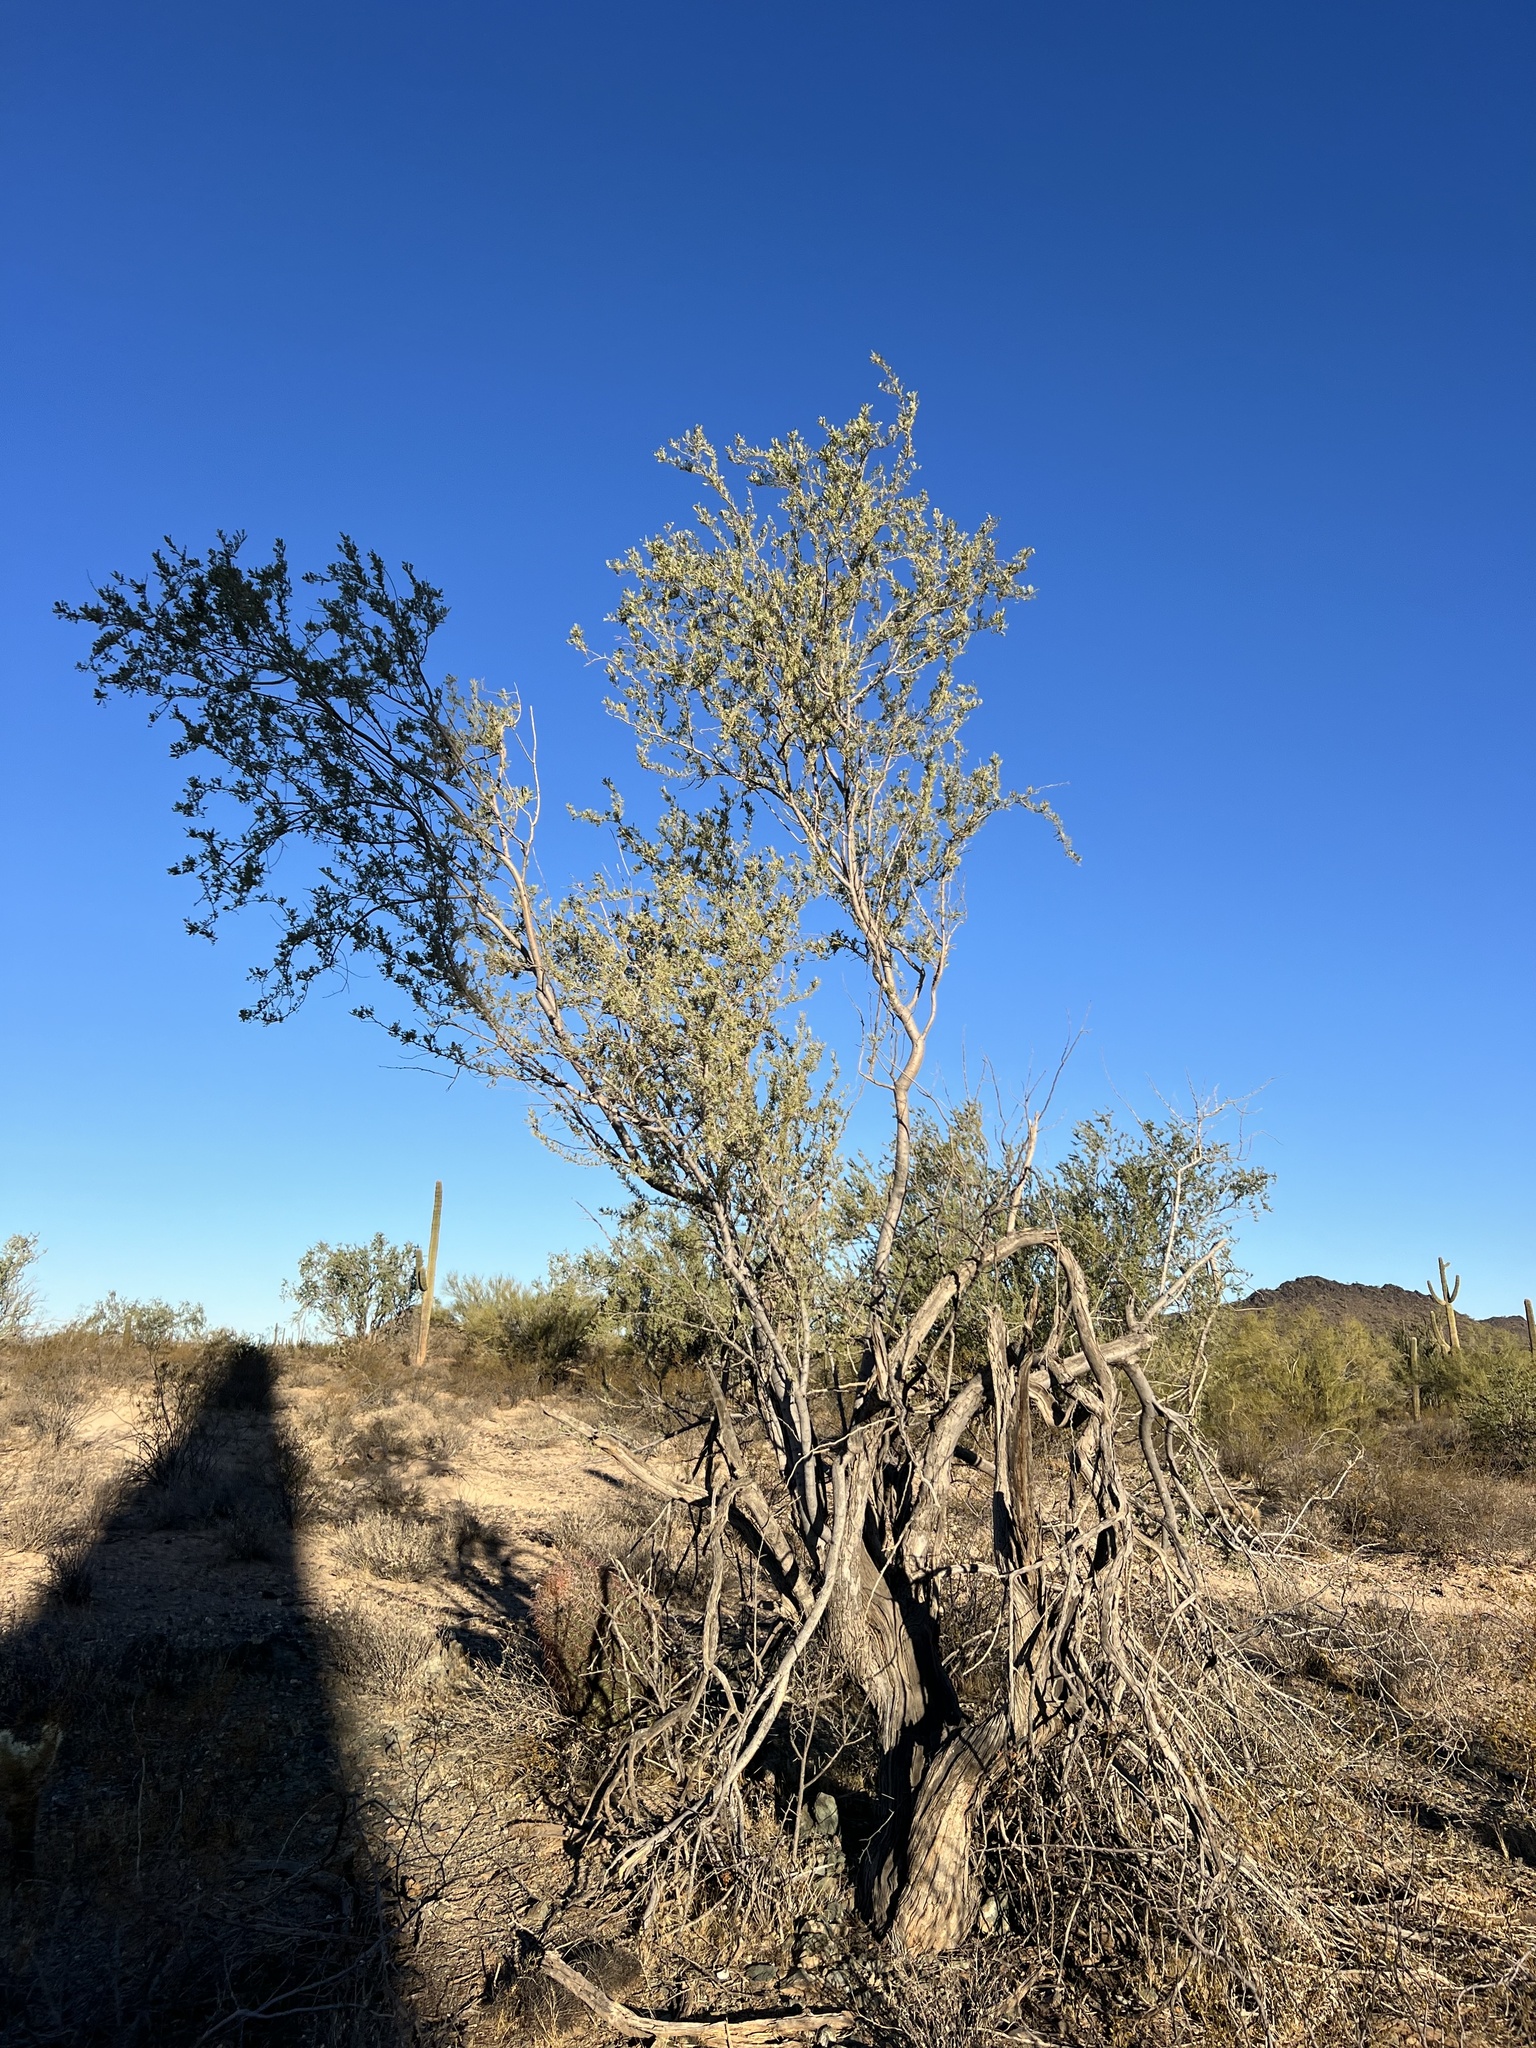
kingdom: Plantae
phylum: Tracheophyta
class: Magnoliopsida
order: Fabales
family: Fabaceae
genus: Olneya
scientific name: Olneya tesota
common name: Desert ironwood
